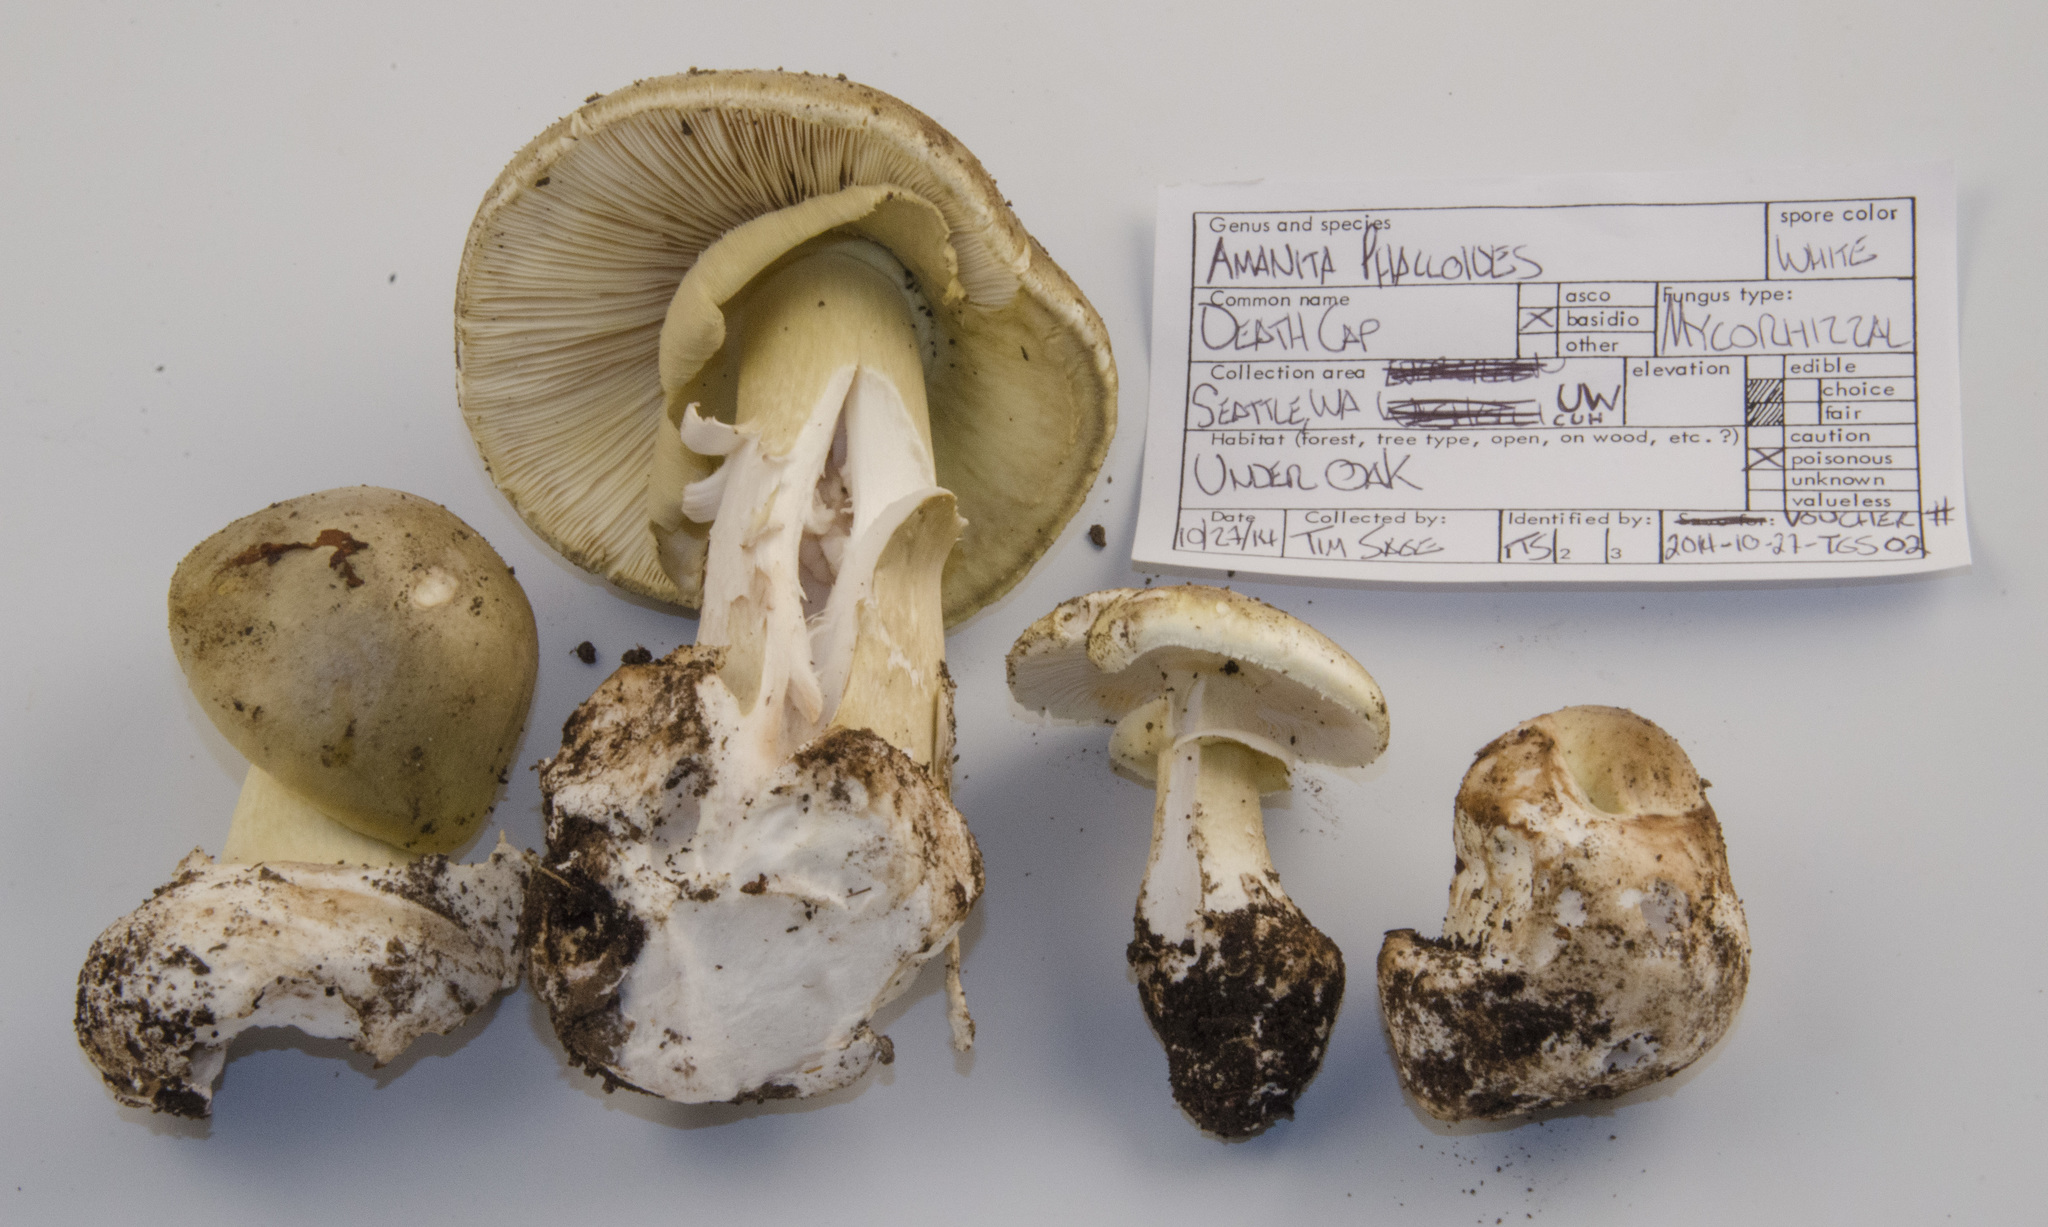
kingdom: Fungi
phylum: Basidiomycota
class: Agaricomycetes
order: Agaricales
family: Amanitaceae
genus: Amanita
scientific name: Amanita phalloides
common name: Death cap
